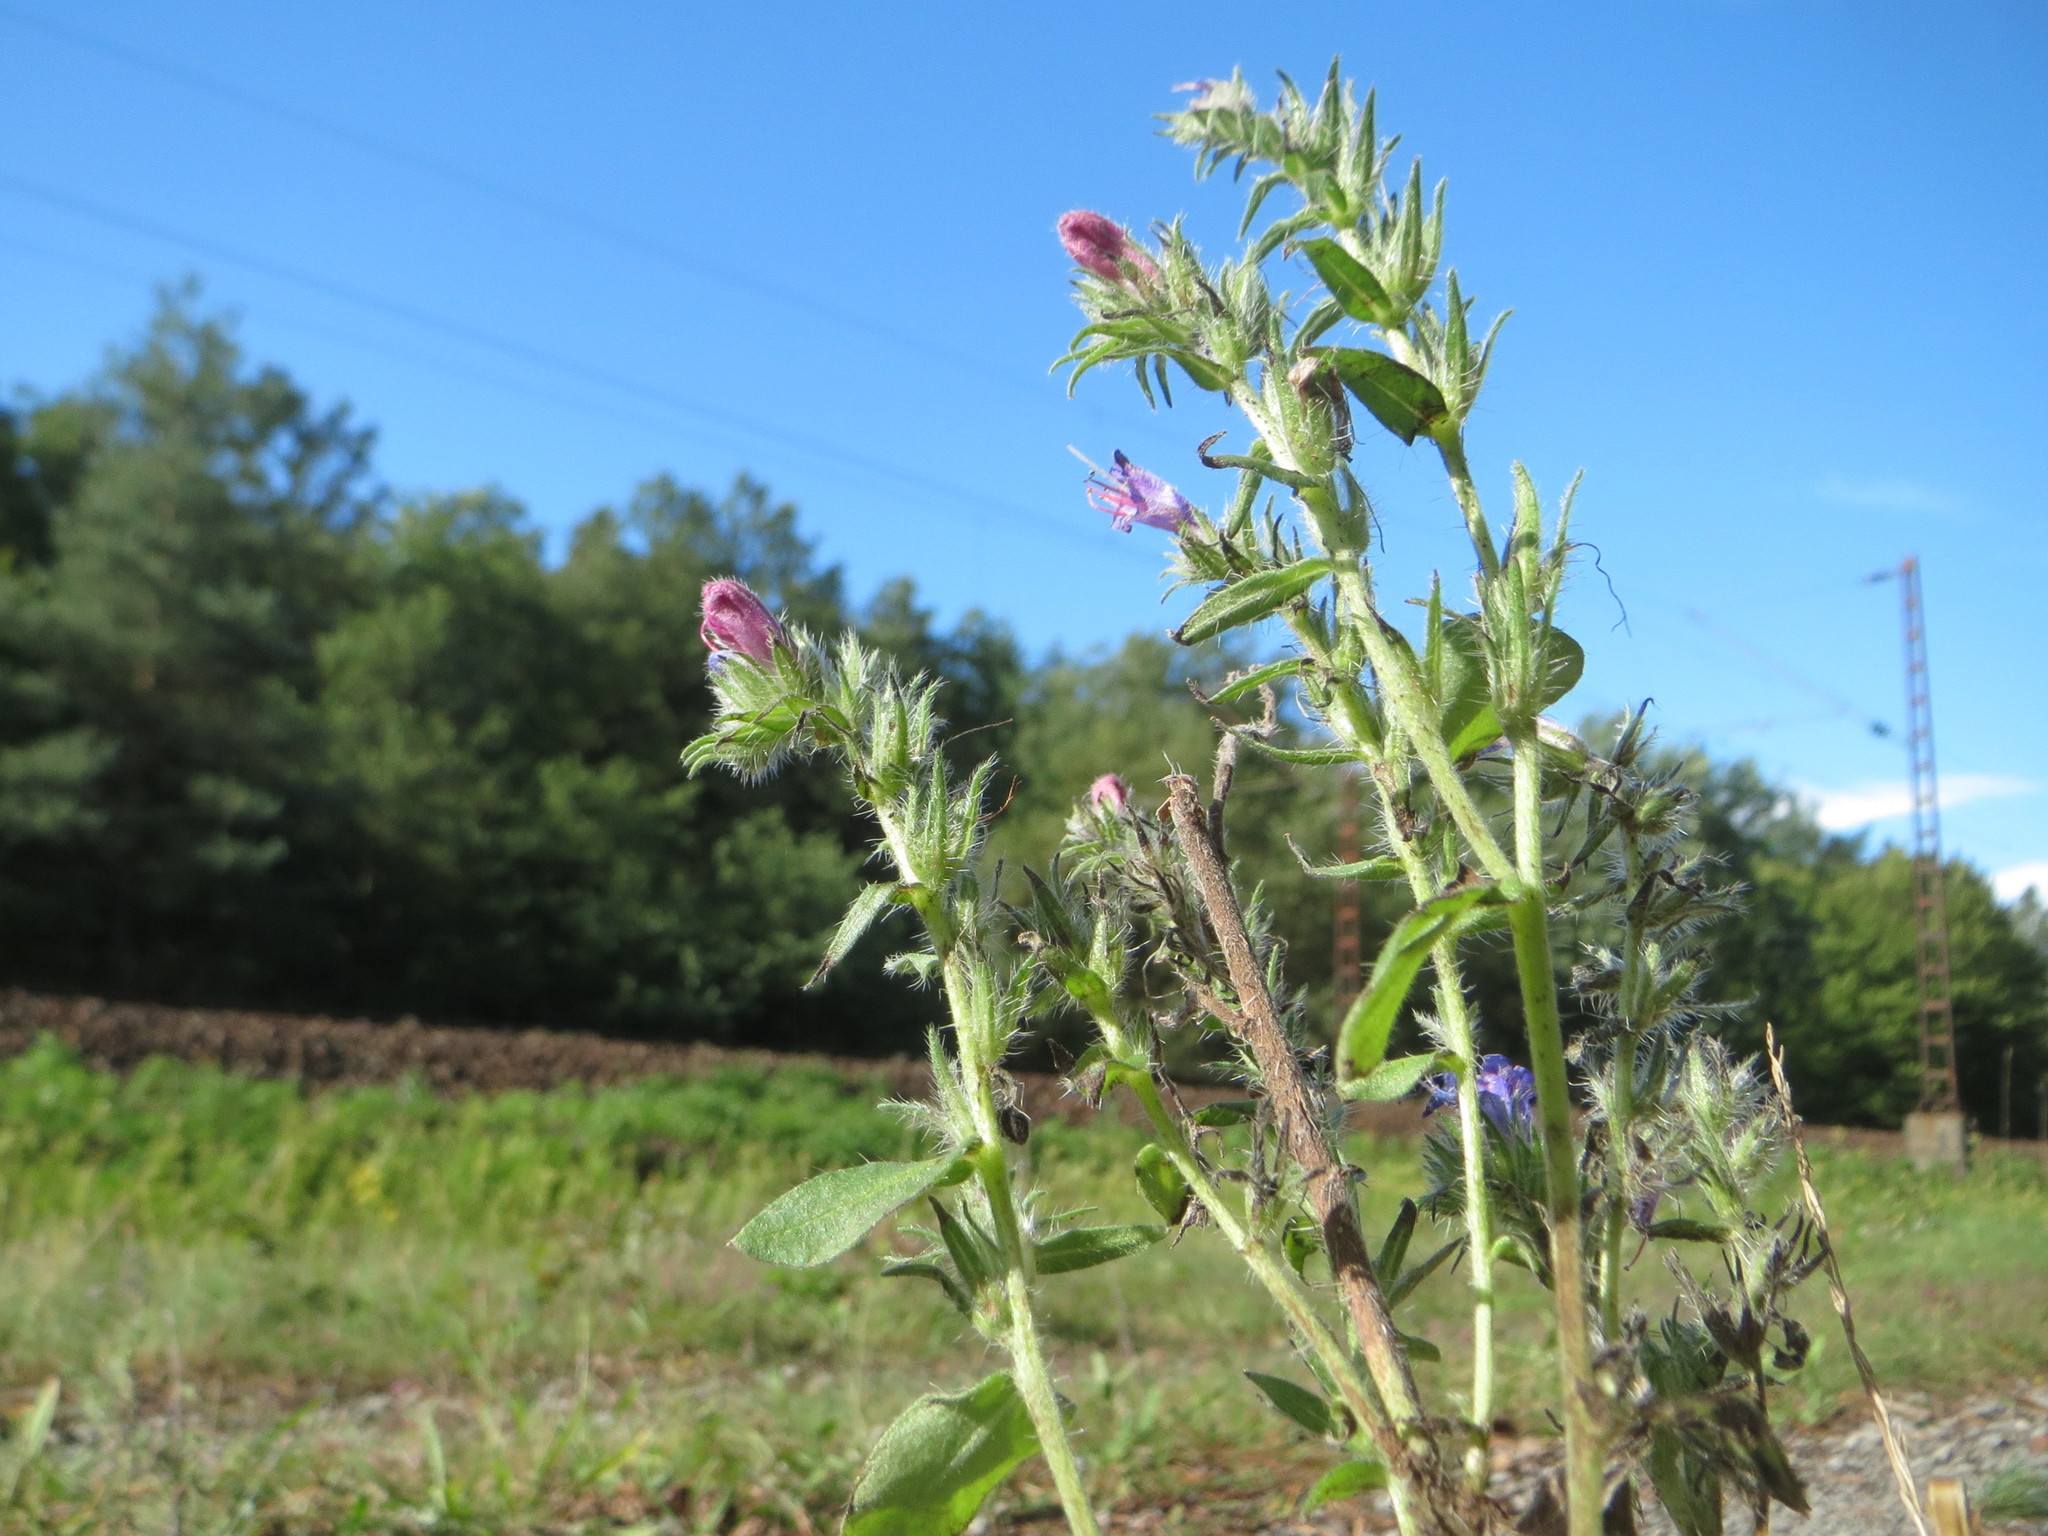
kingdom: Plantae
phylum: Tracheophyta
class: Magnoliopsida
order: Boraginales
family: Boraginaceae
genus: Echium
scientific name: Echium vulgare
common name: Common viper's bugloss
